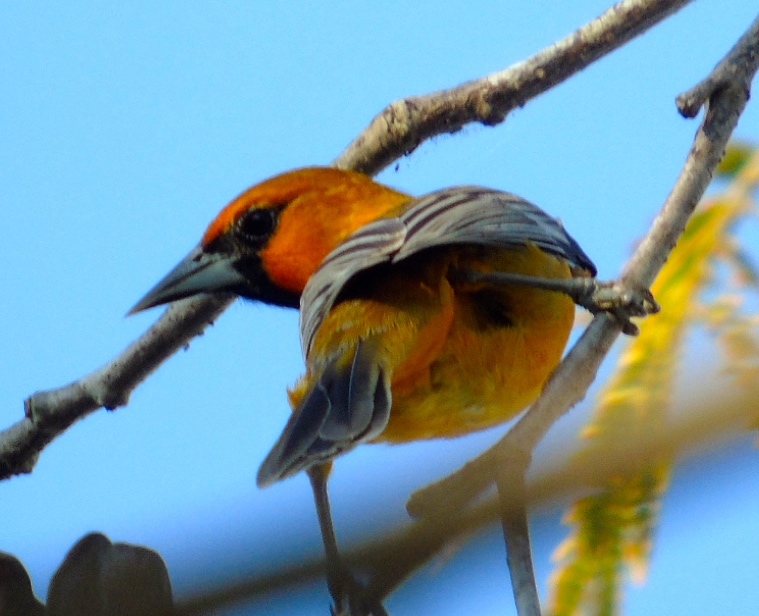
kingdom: Animalia
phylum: Chordata
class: Aves
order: Passeriformes
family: Icteridae
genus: Icterus
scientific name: Icterus pustulatus
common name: Streak-backed oriole
